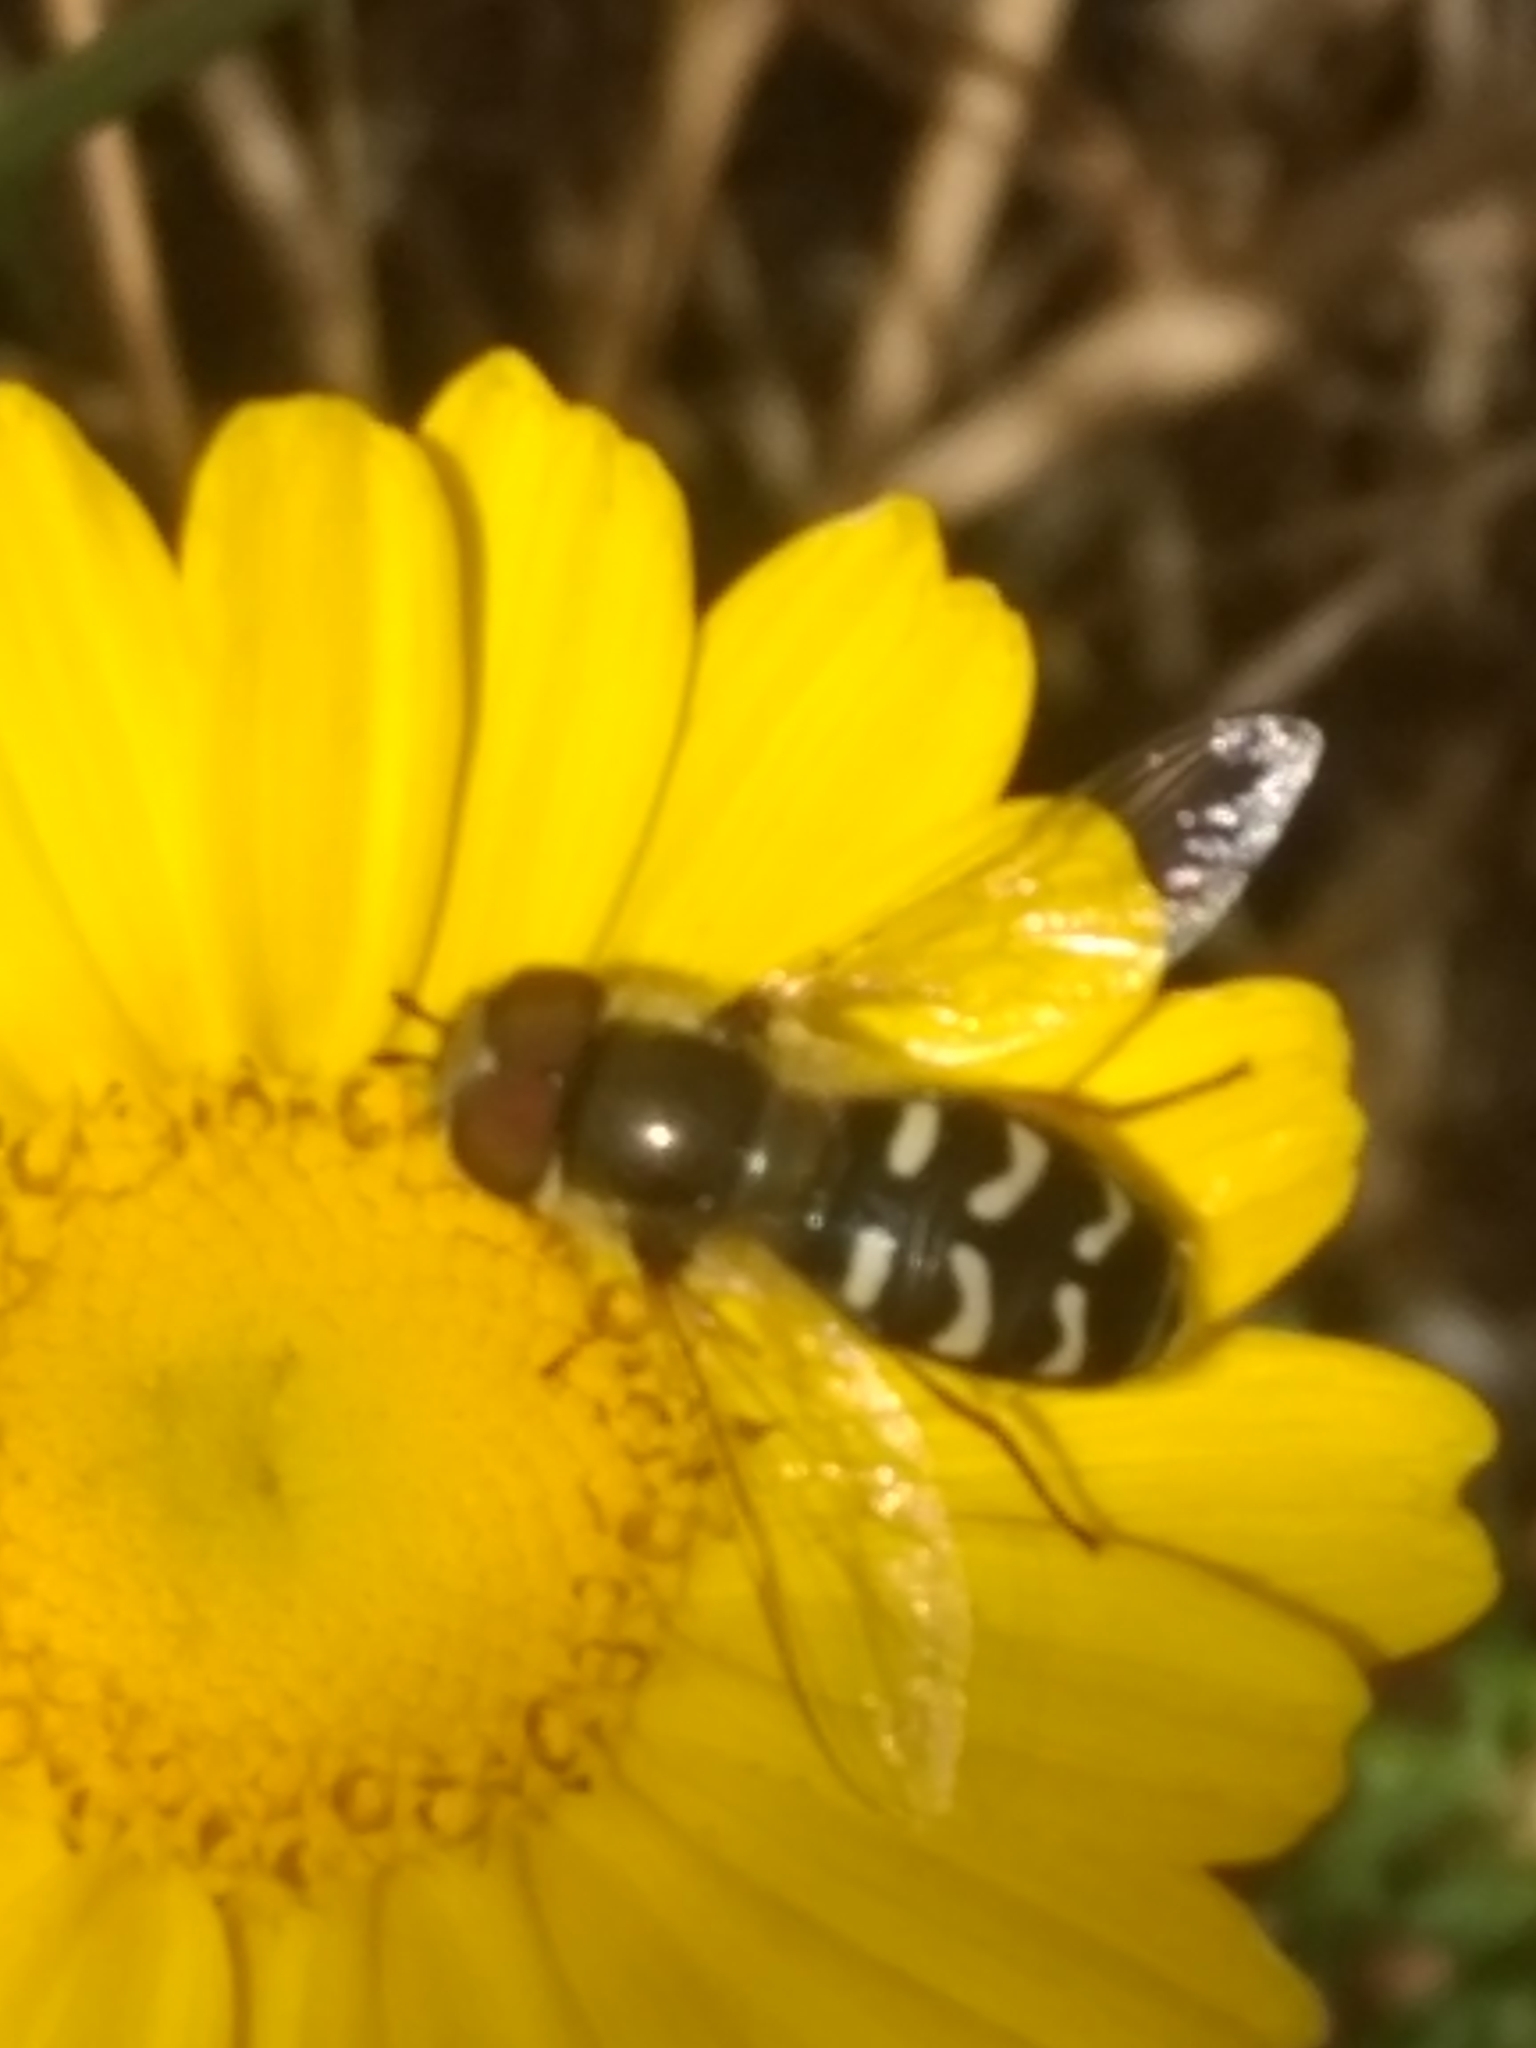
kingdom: Animalia
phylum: Arthropoda
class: Insecta
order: Diptera
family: Syrphidae
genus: Scaeva
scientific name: Scaeva affinis
